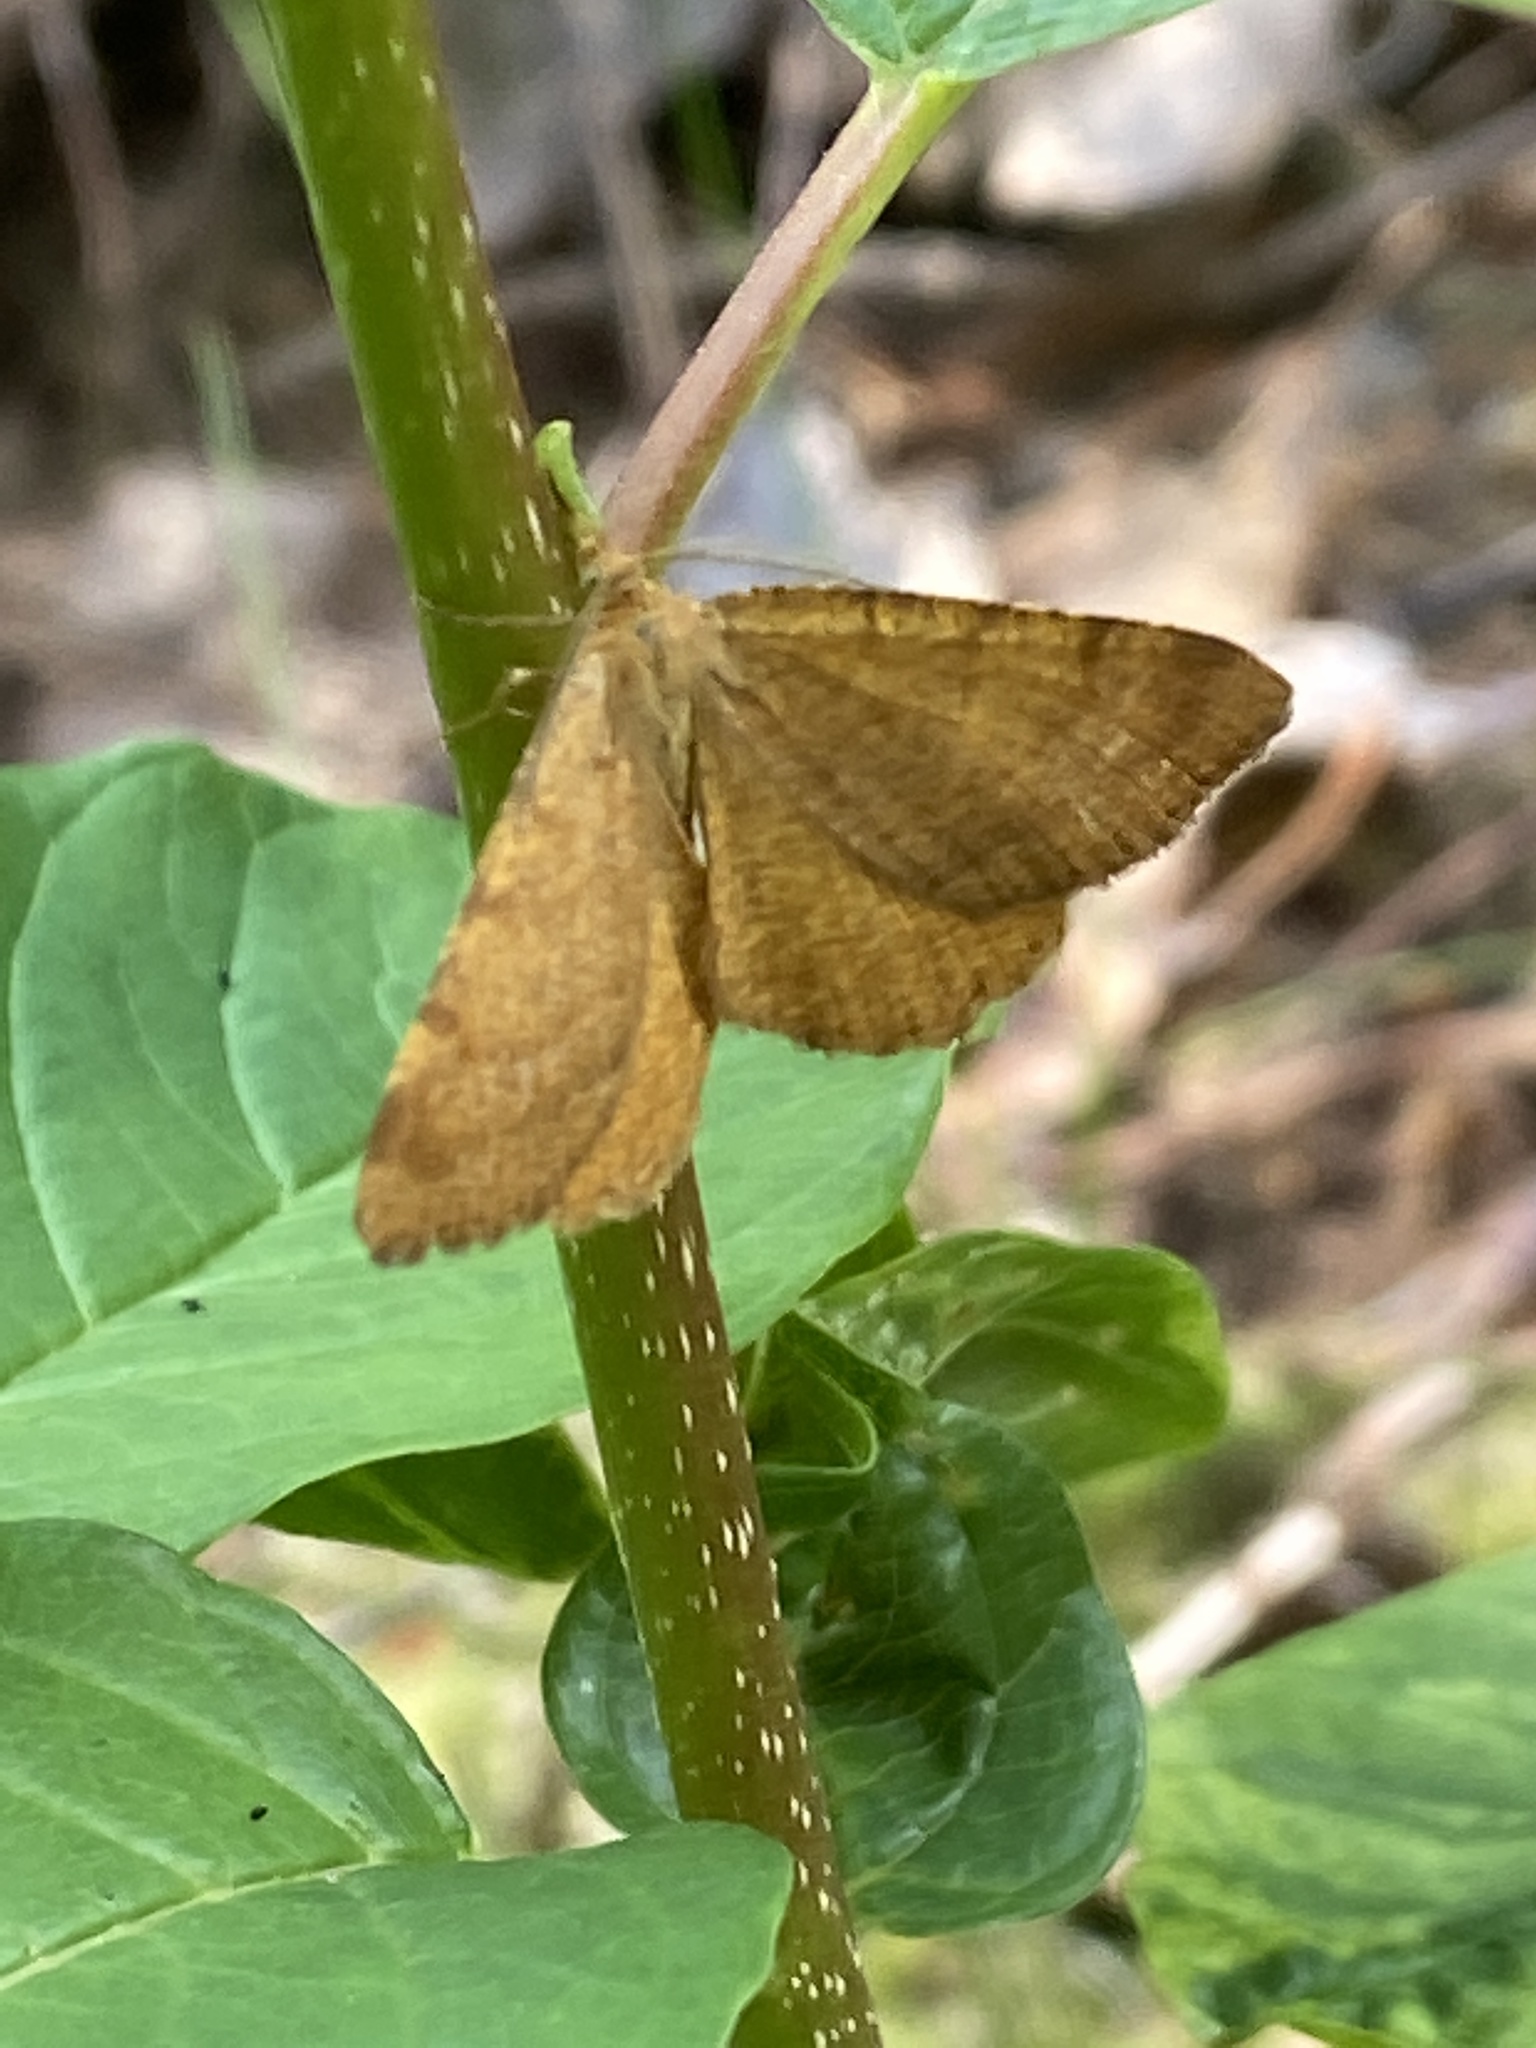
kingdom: Animalia
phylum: Arthropoda
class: Insecta
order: Lepidoptera
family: Geometridae
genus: Macaria
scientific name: Macaria brunneata
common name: Rannoch looper
